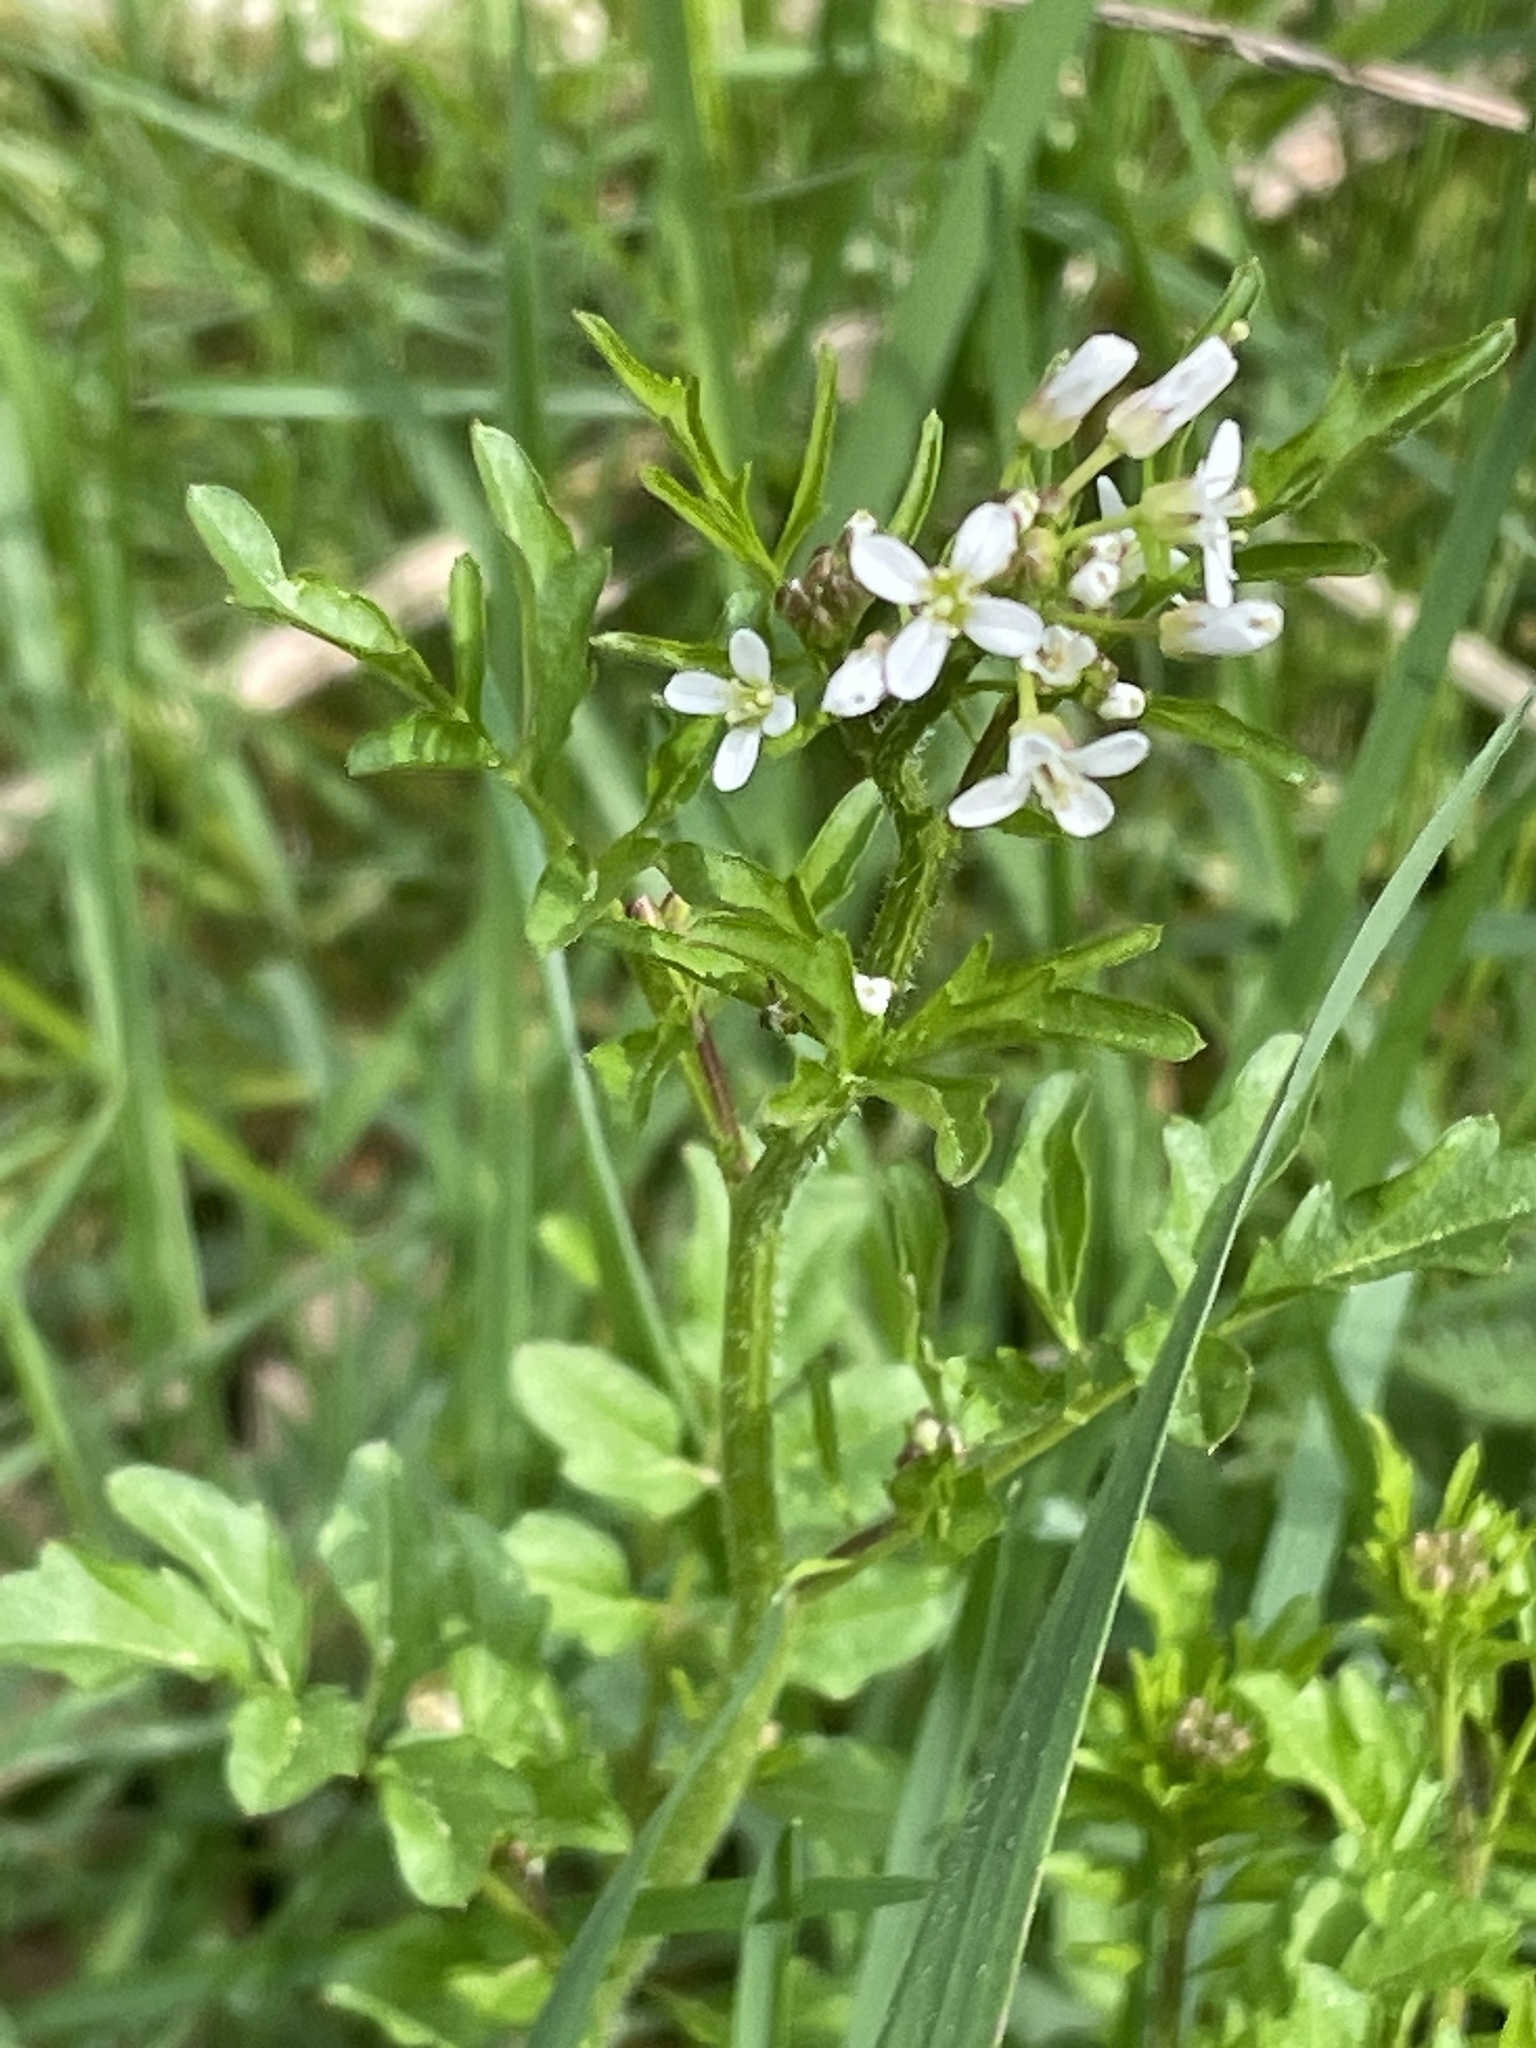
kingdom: Plantae
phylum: Tracheophyta
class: Magnoliopsida
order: Brassicales
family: Brassicaceae
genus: Cardamine
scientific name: Cardamine flexuosa
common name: Woodland bittercress
